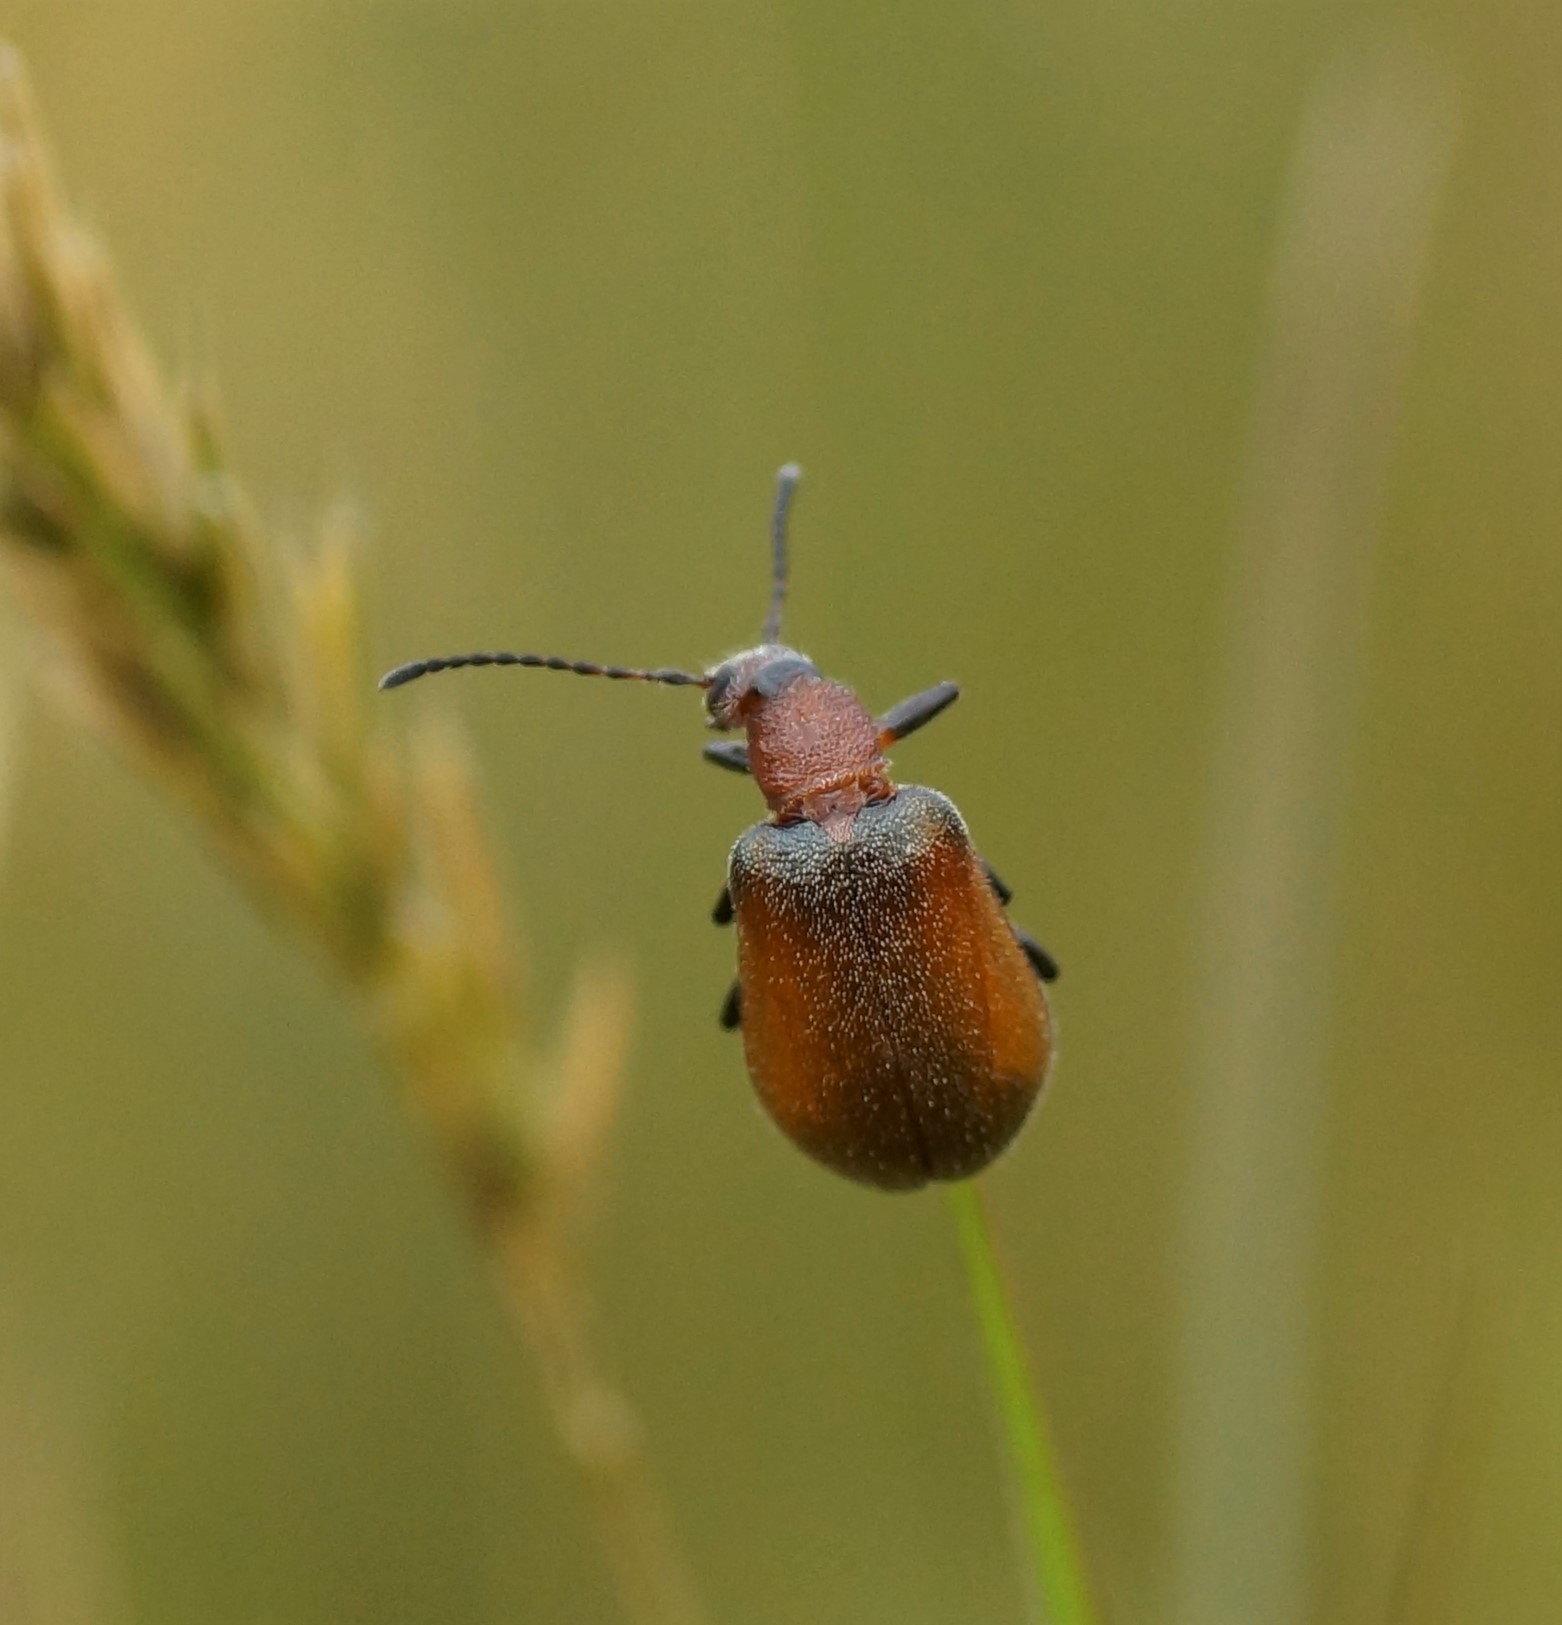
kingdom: Animalia
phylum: Arthropoda
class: Insecta
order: Coleoptera
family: Tenebrionidae
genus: Ecnolagria
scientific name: Ecnolagria
